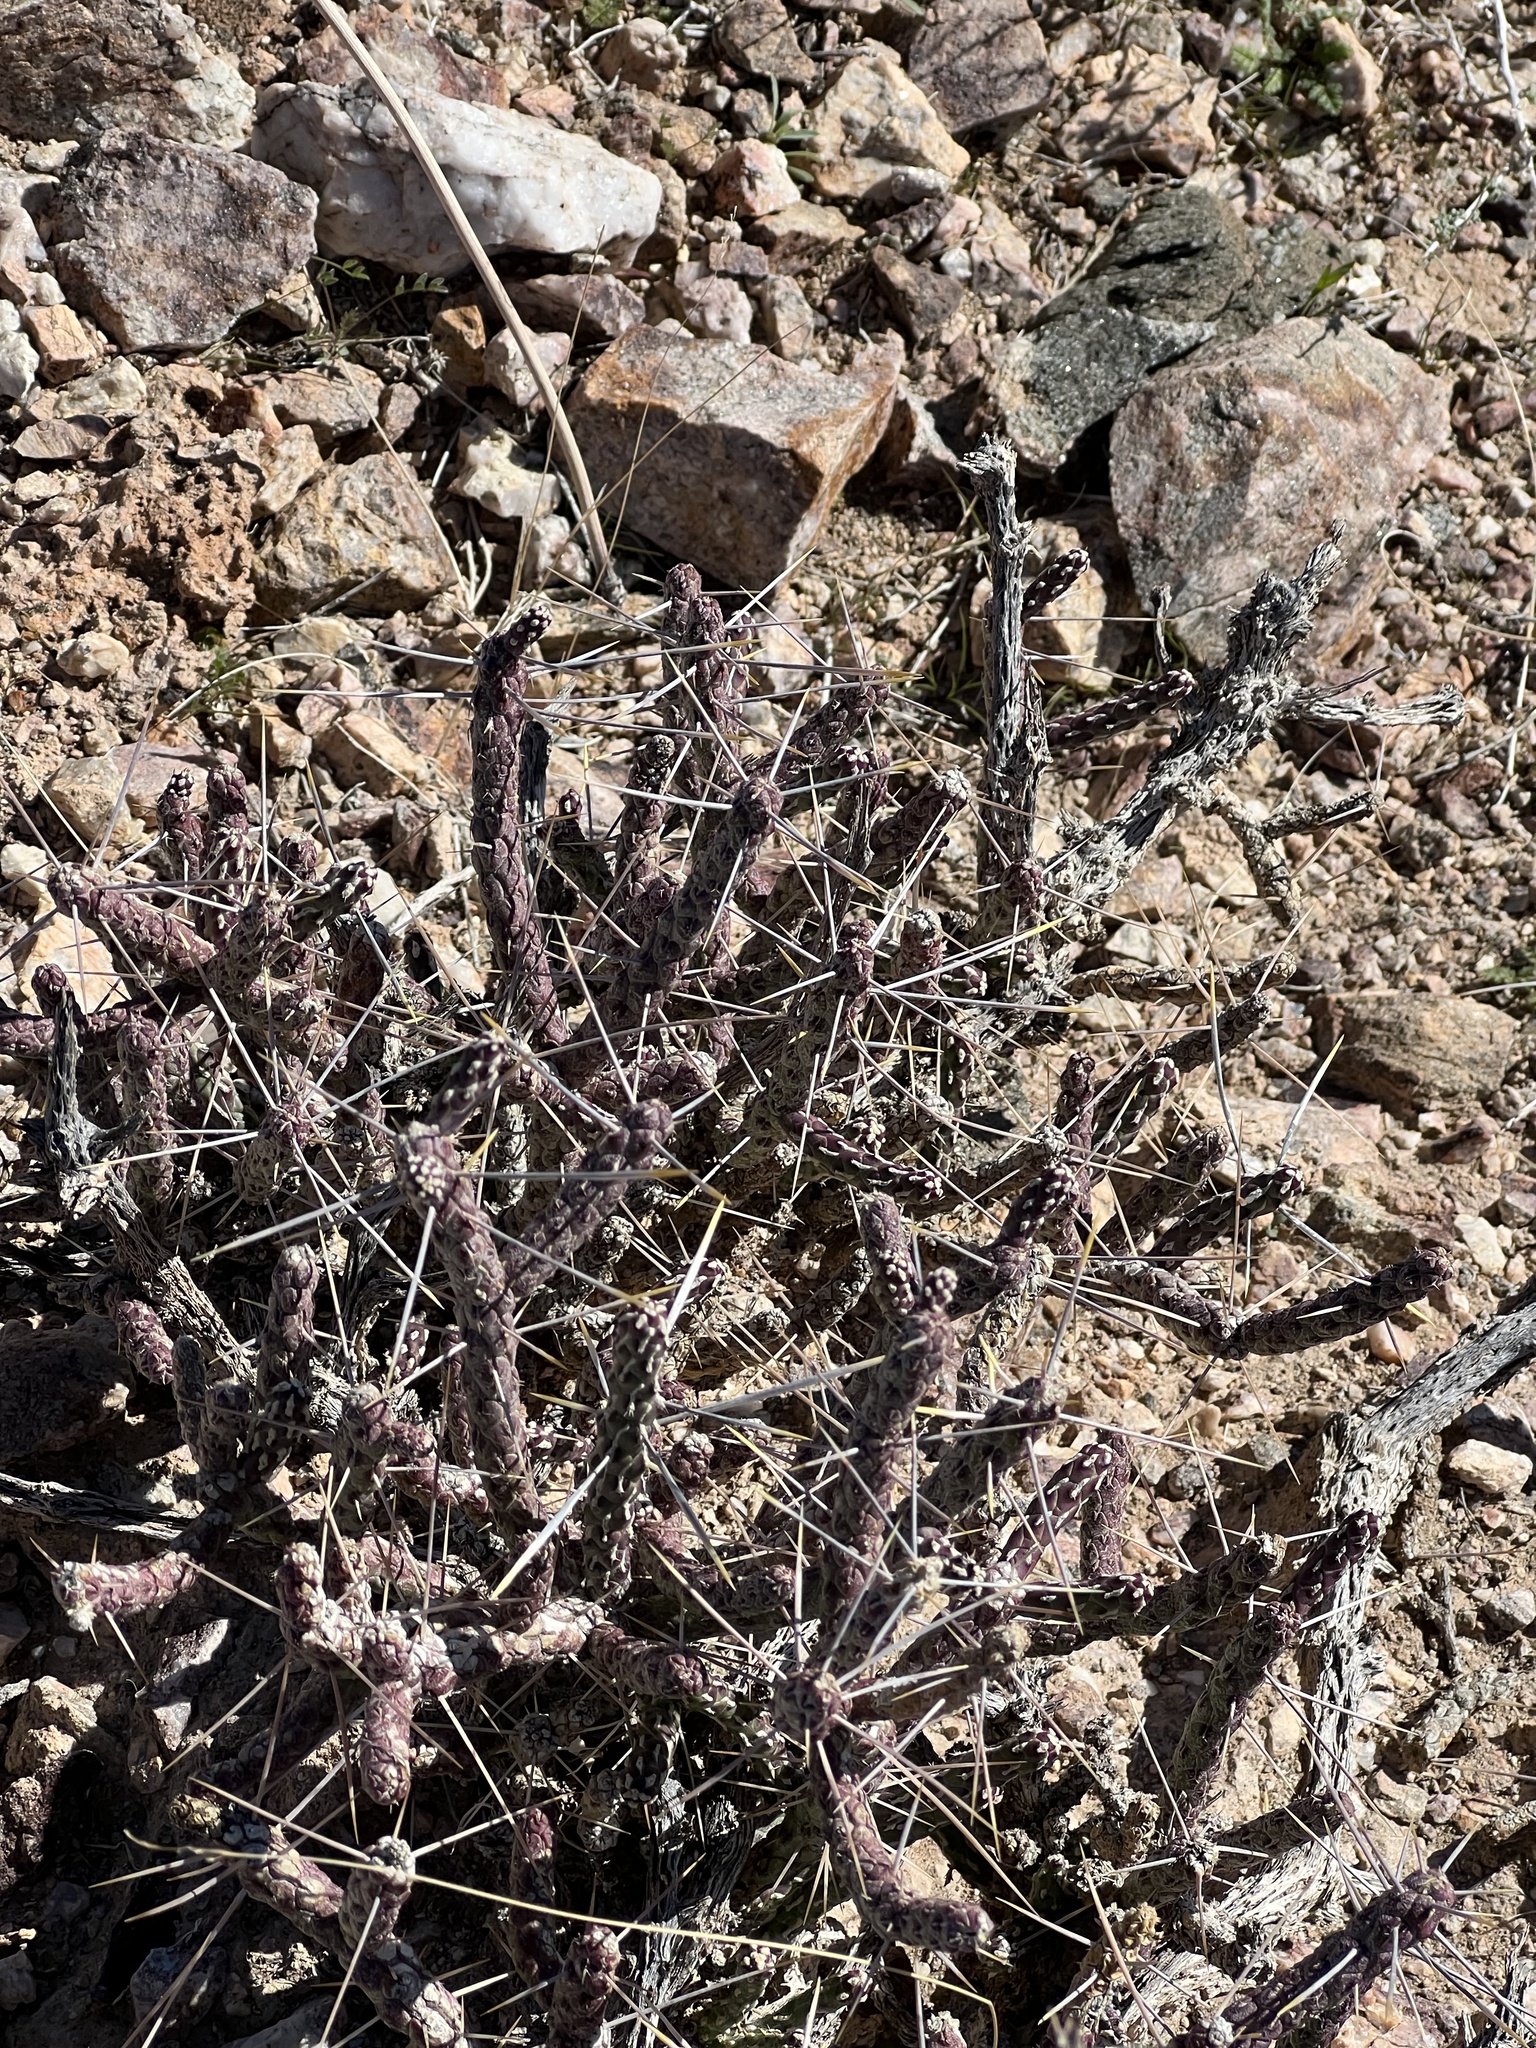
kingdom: Plantae
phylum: Tracheophyta
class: Magnoliopsida
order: Caryophyllales
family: Cactaceae
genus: Cylindropuntia
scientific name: Cylindropuntia ramosissima
